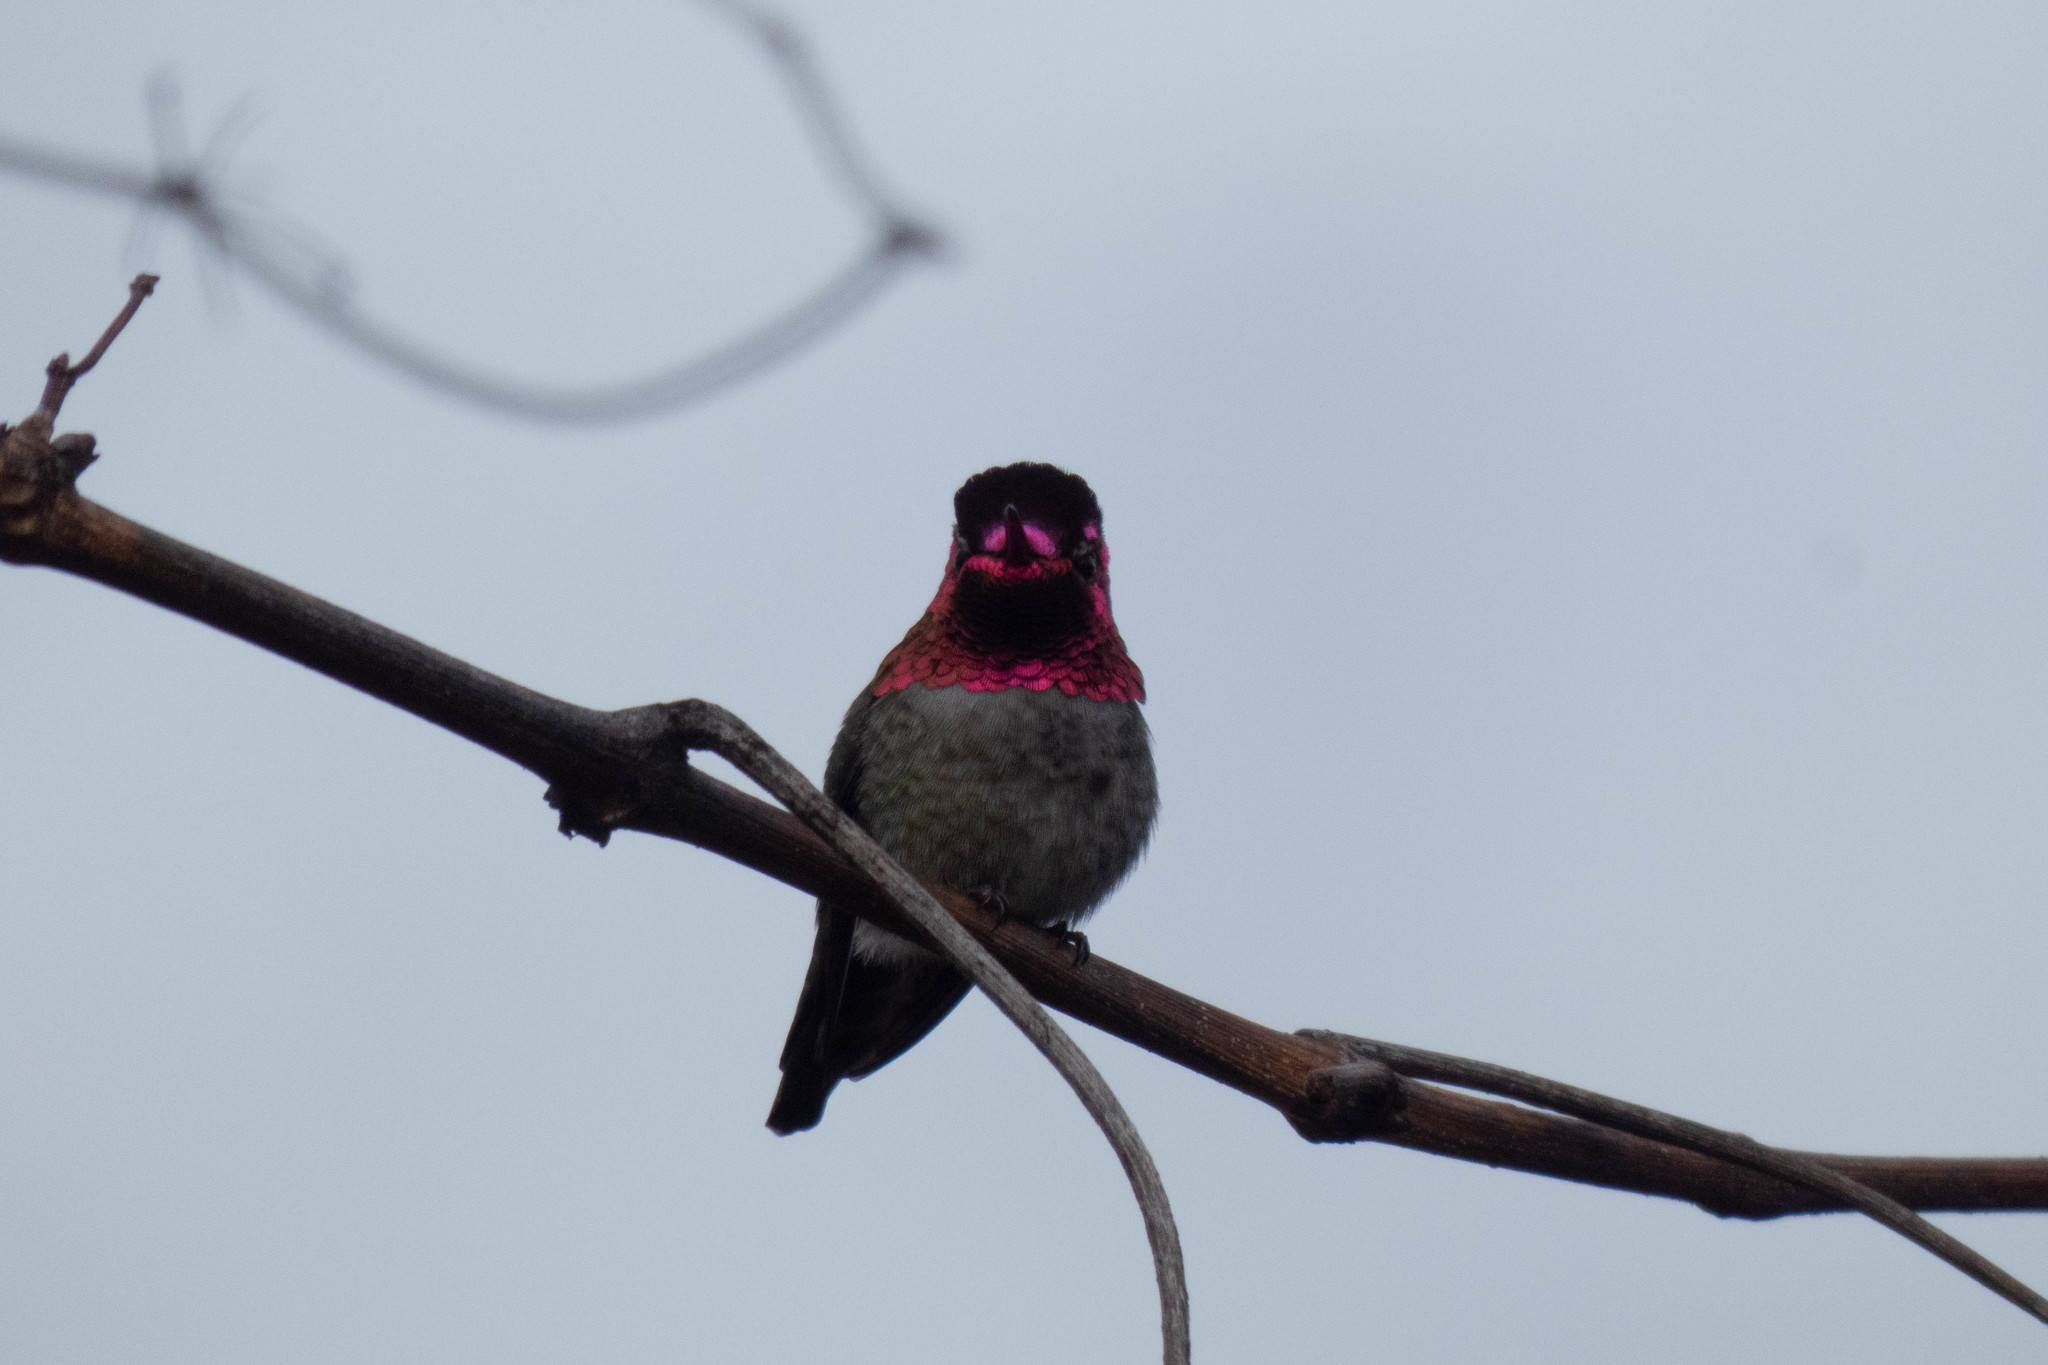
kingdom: Animalia
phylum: Chordata
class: Aves
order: Apodiformes
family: Trochilidae
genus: Calypte
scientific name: Calypte anna
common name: Anna's hummingbird
